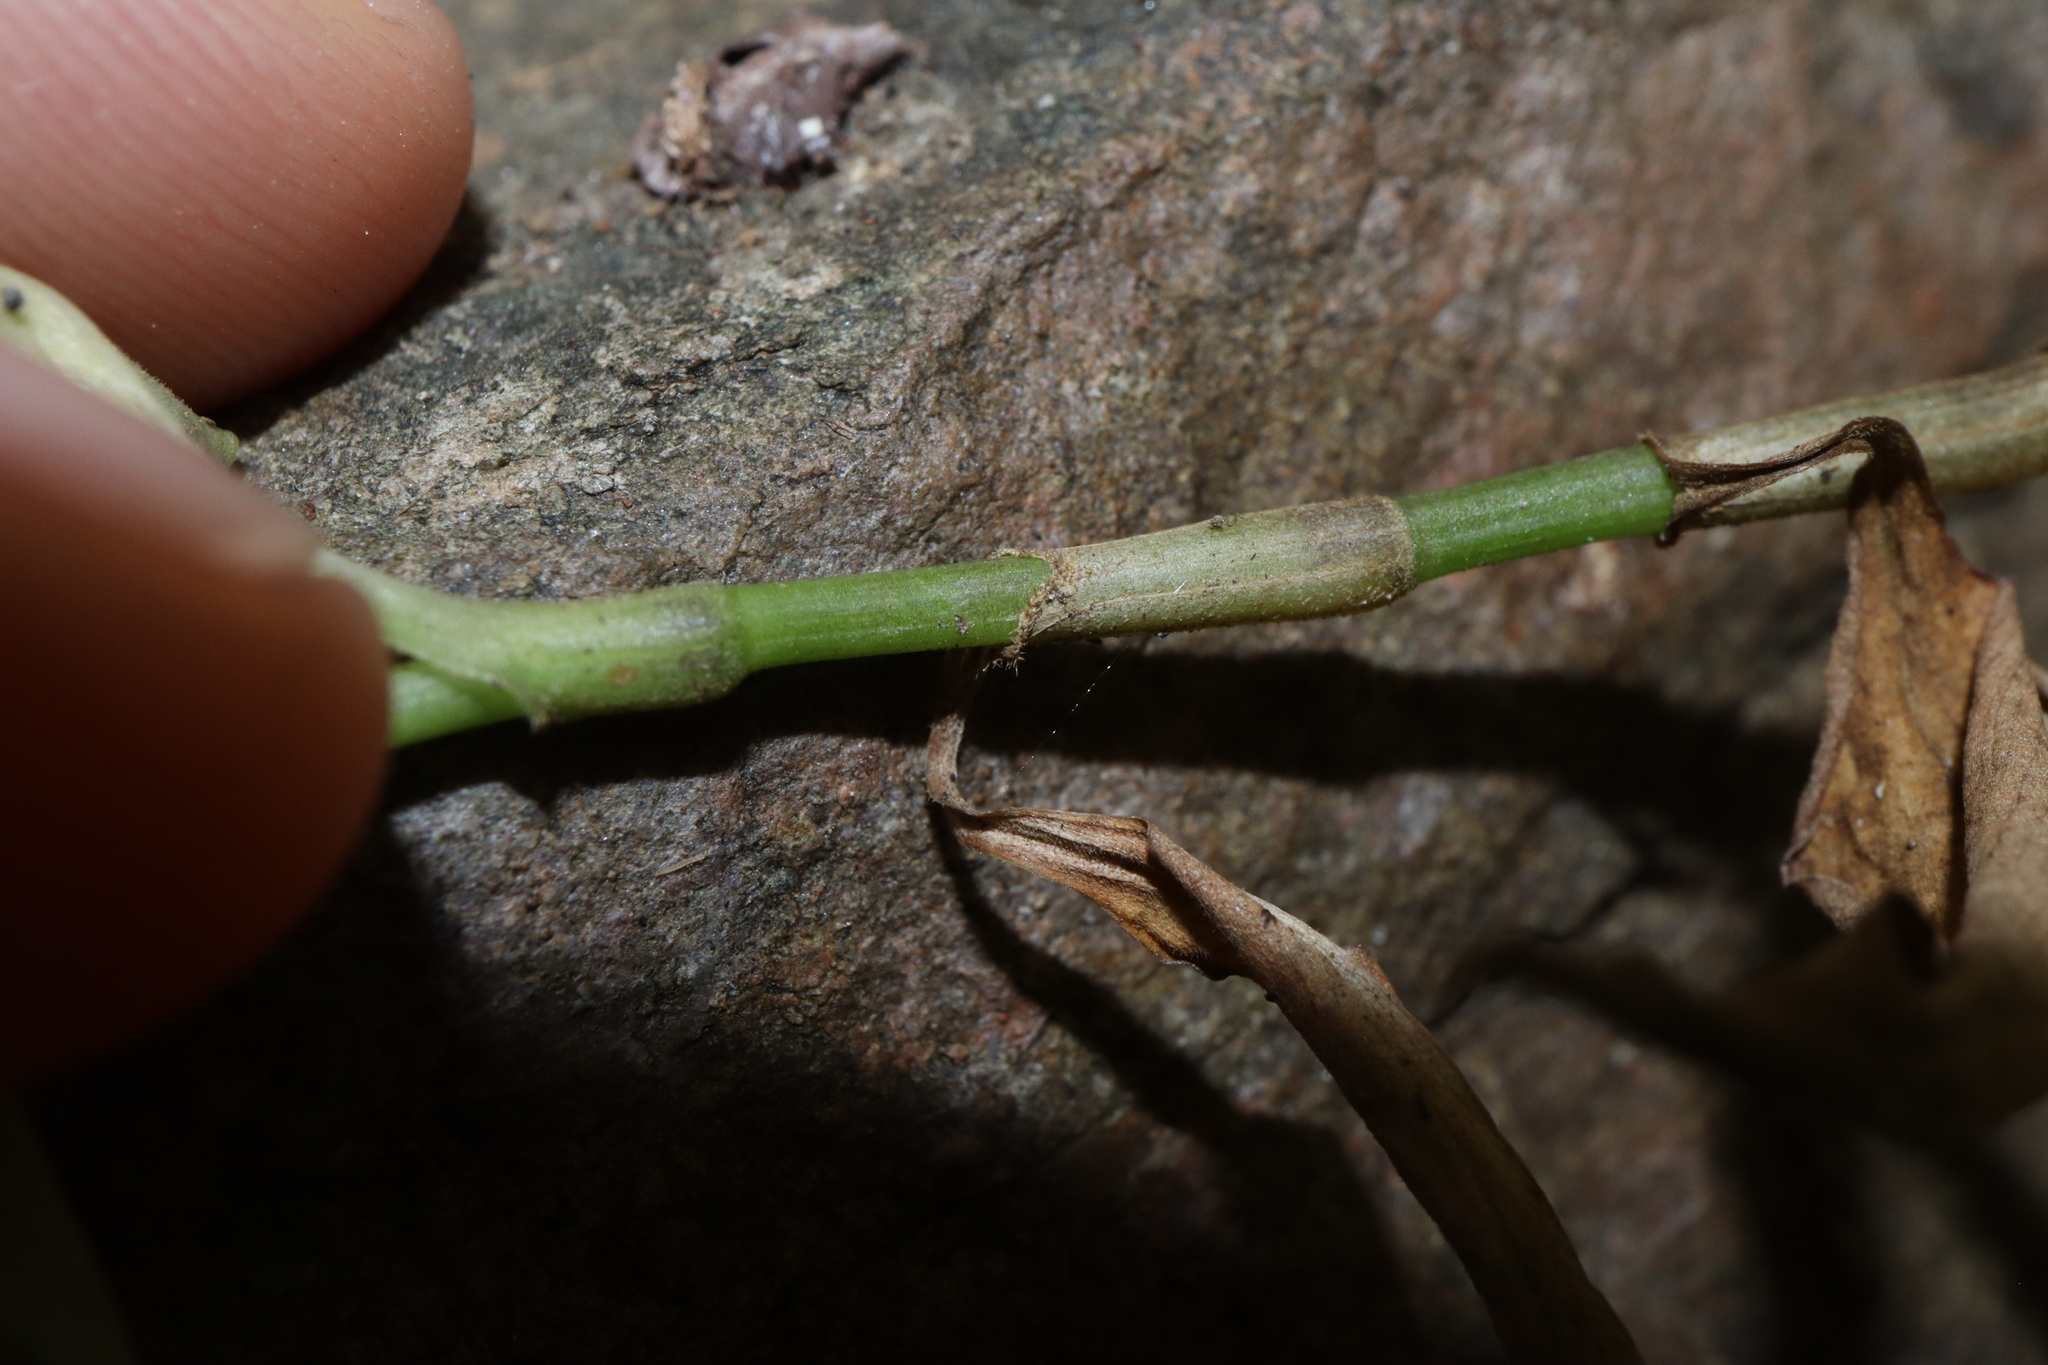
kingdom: Plantae
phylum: Tracheophyta
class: Liliopsida
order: Commelinales
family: Commelinaceae
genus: Aneilema
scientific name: Aneilema acuminatum
